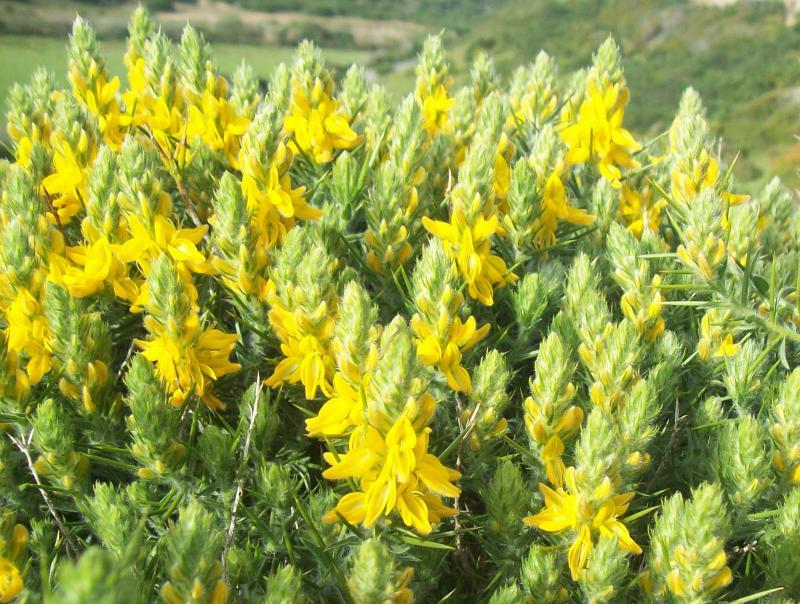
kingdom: Plantae
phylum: Tracheophyta
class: Magnoliopsida
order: Fabales
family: Fabaceae
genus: Genista
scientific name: Genista hirsuta
